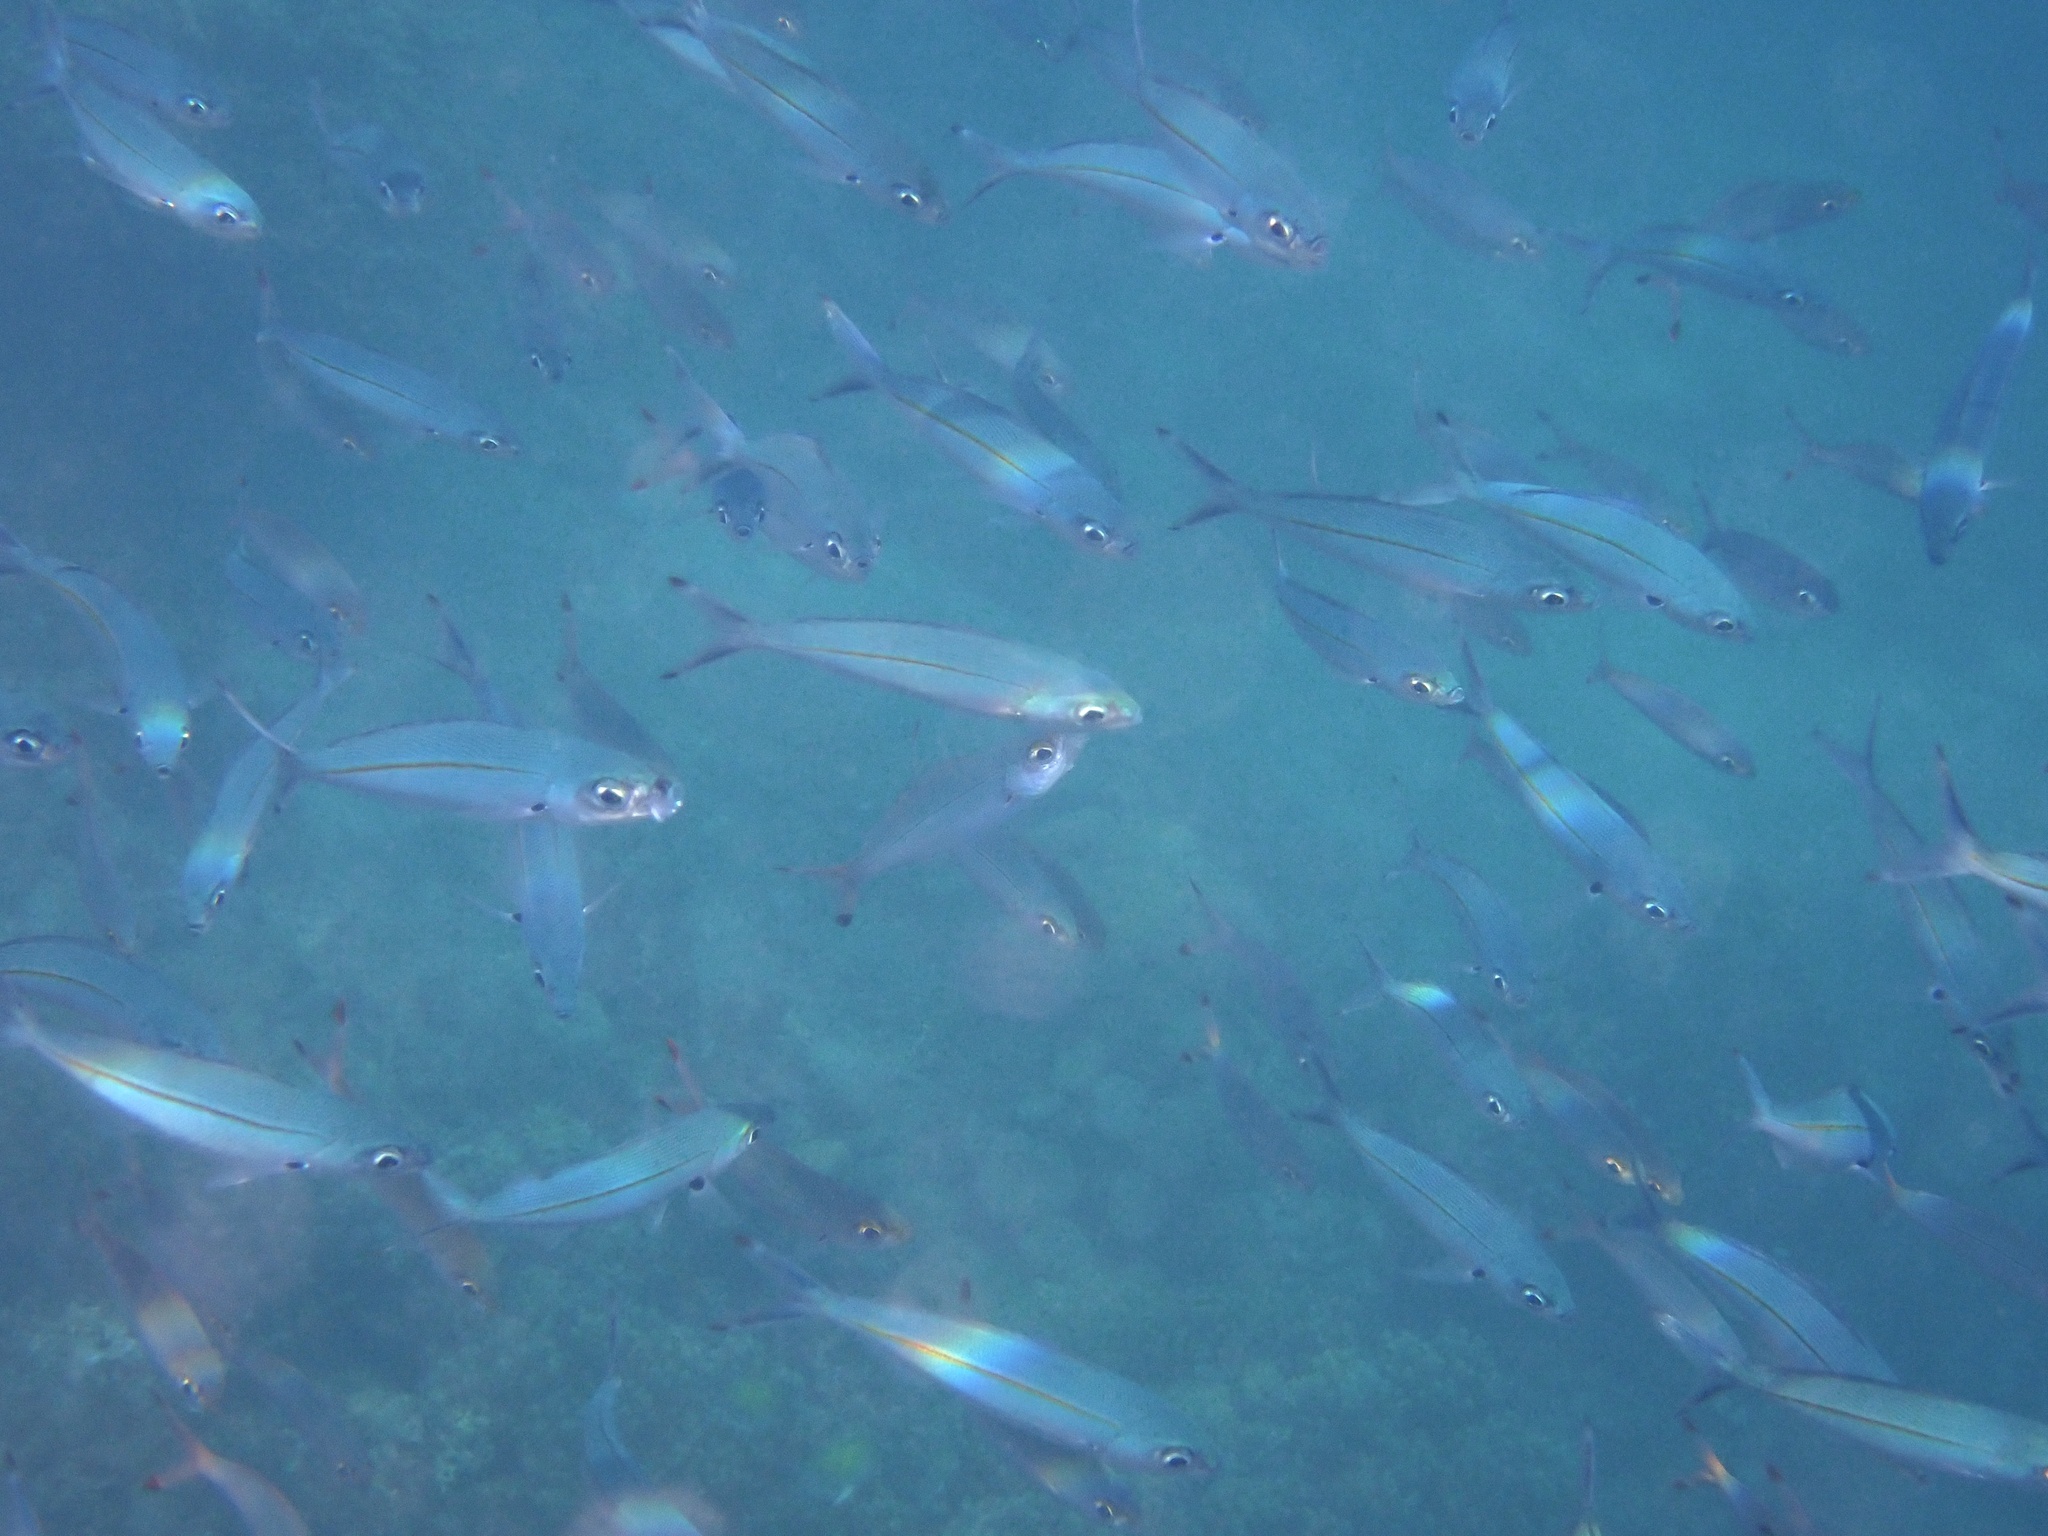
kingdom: Animalia
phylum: Chordata
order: Perciformes
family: Caesionidae
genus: Pterocaesio
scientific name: Pterocaesio tessellata
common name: One-stripe fusilier
